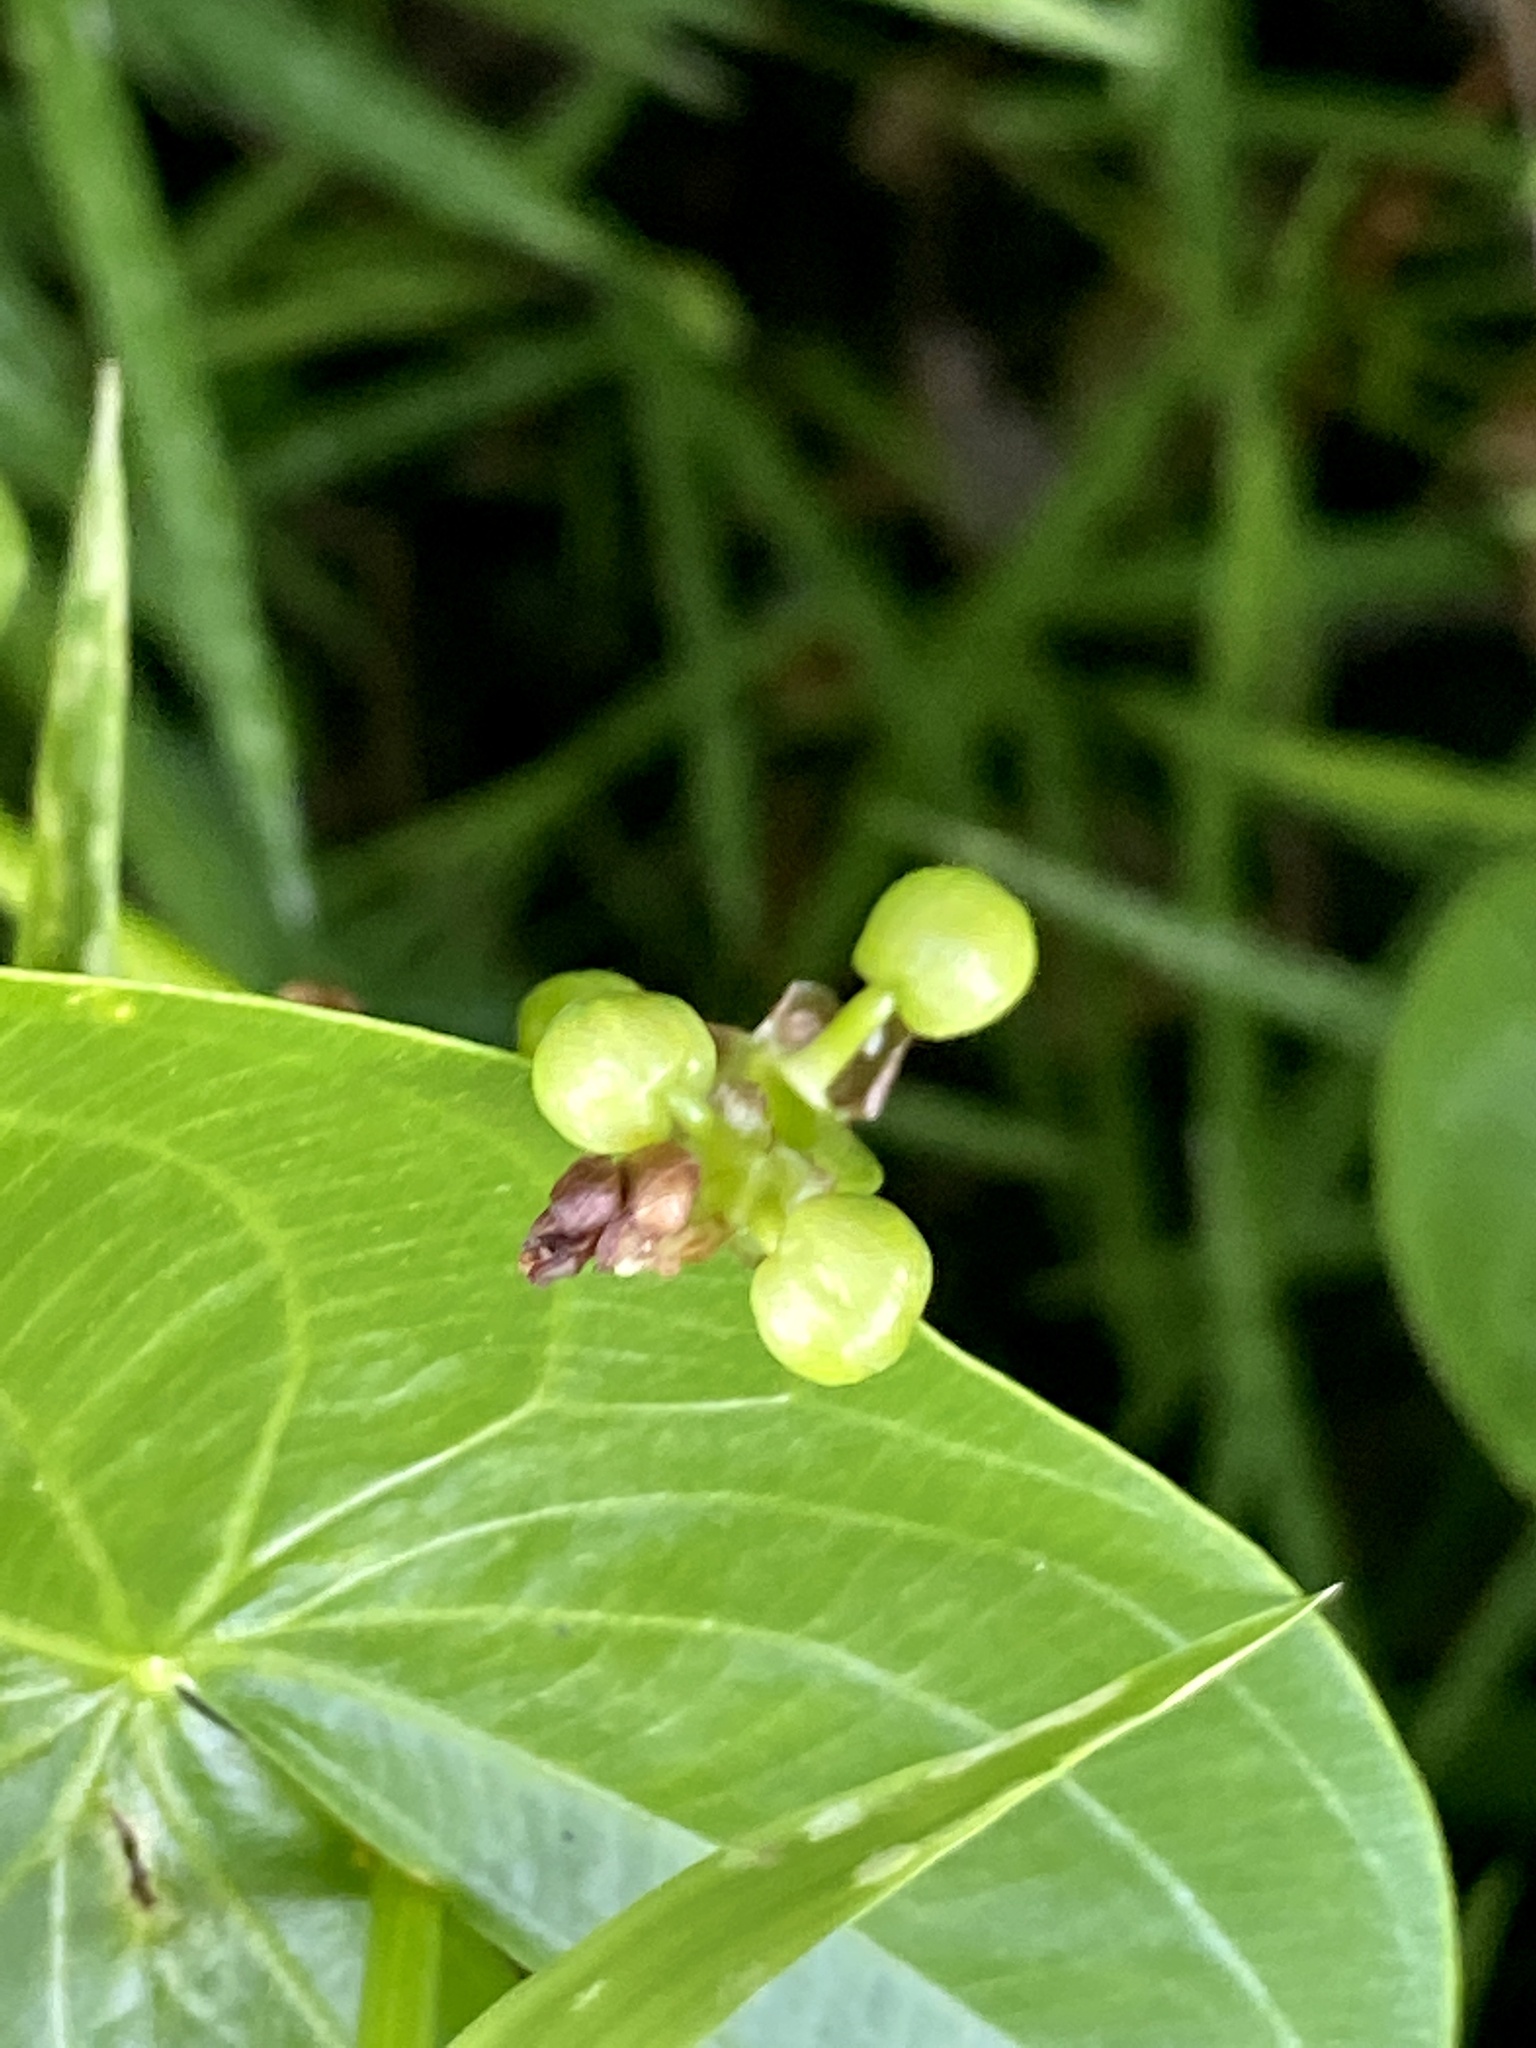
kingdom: Plantae
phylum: Tracheophyta
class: Liliopsida
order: Alismatales
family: Alismataceae
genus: Sagittaria
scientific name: Sagittaria latifolia
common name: Duck-potato
